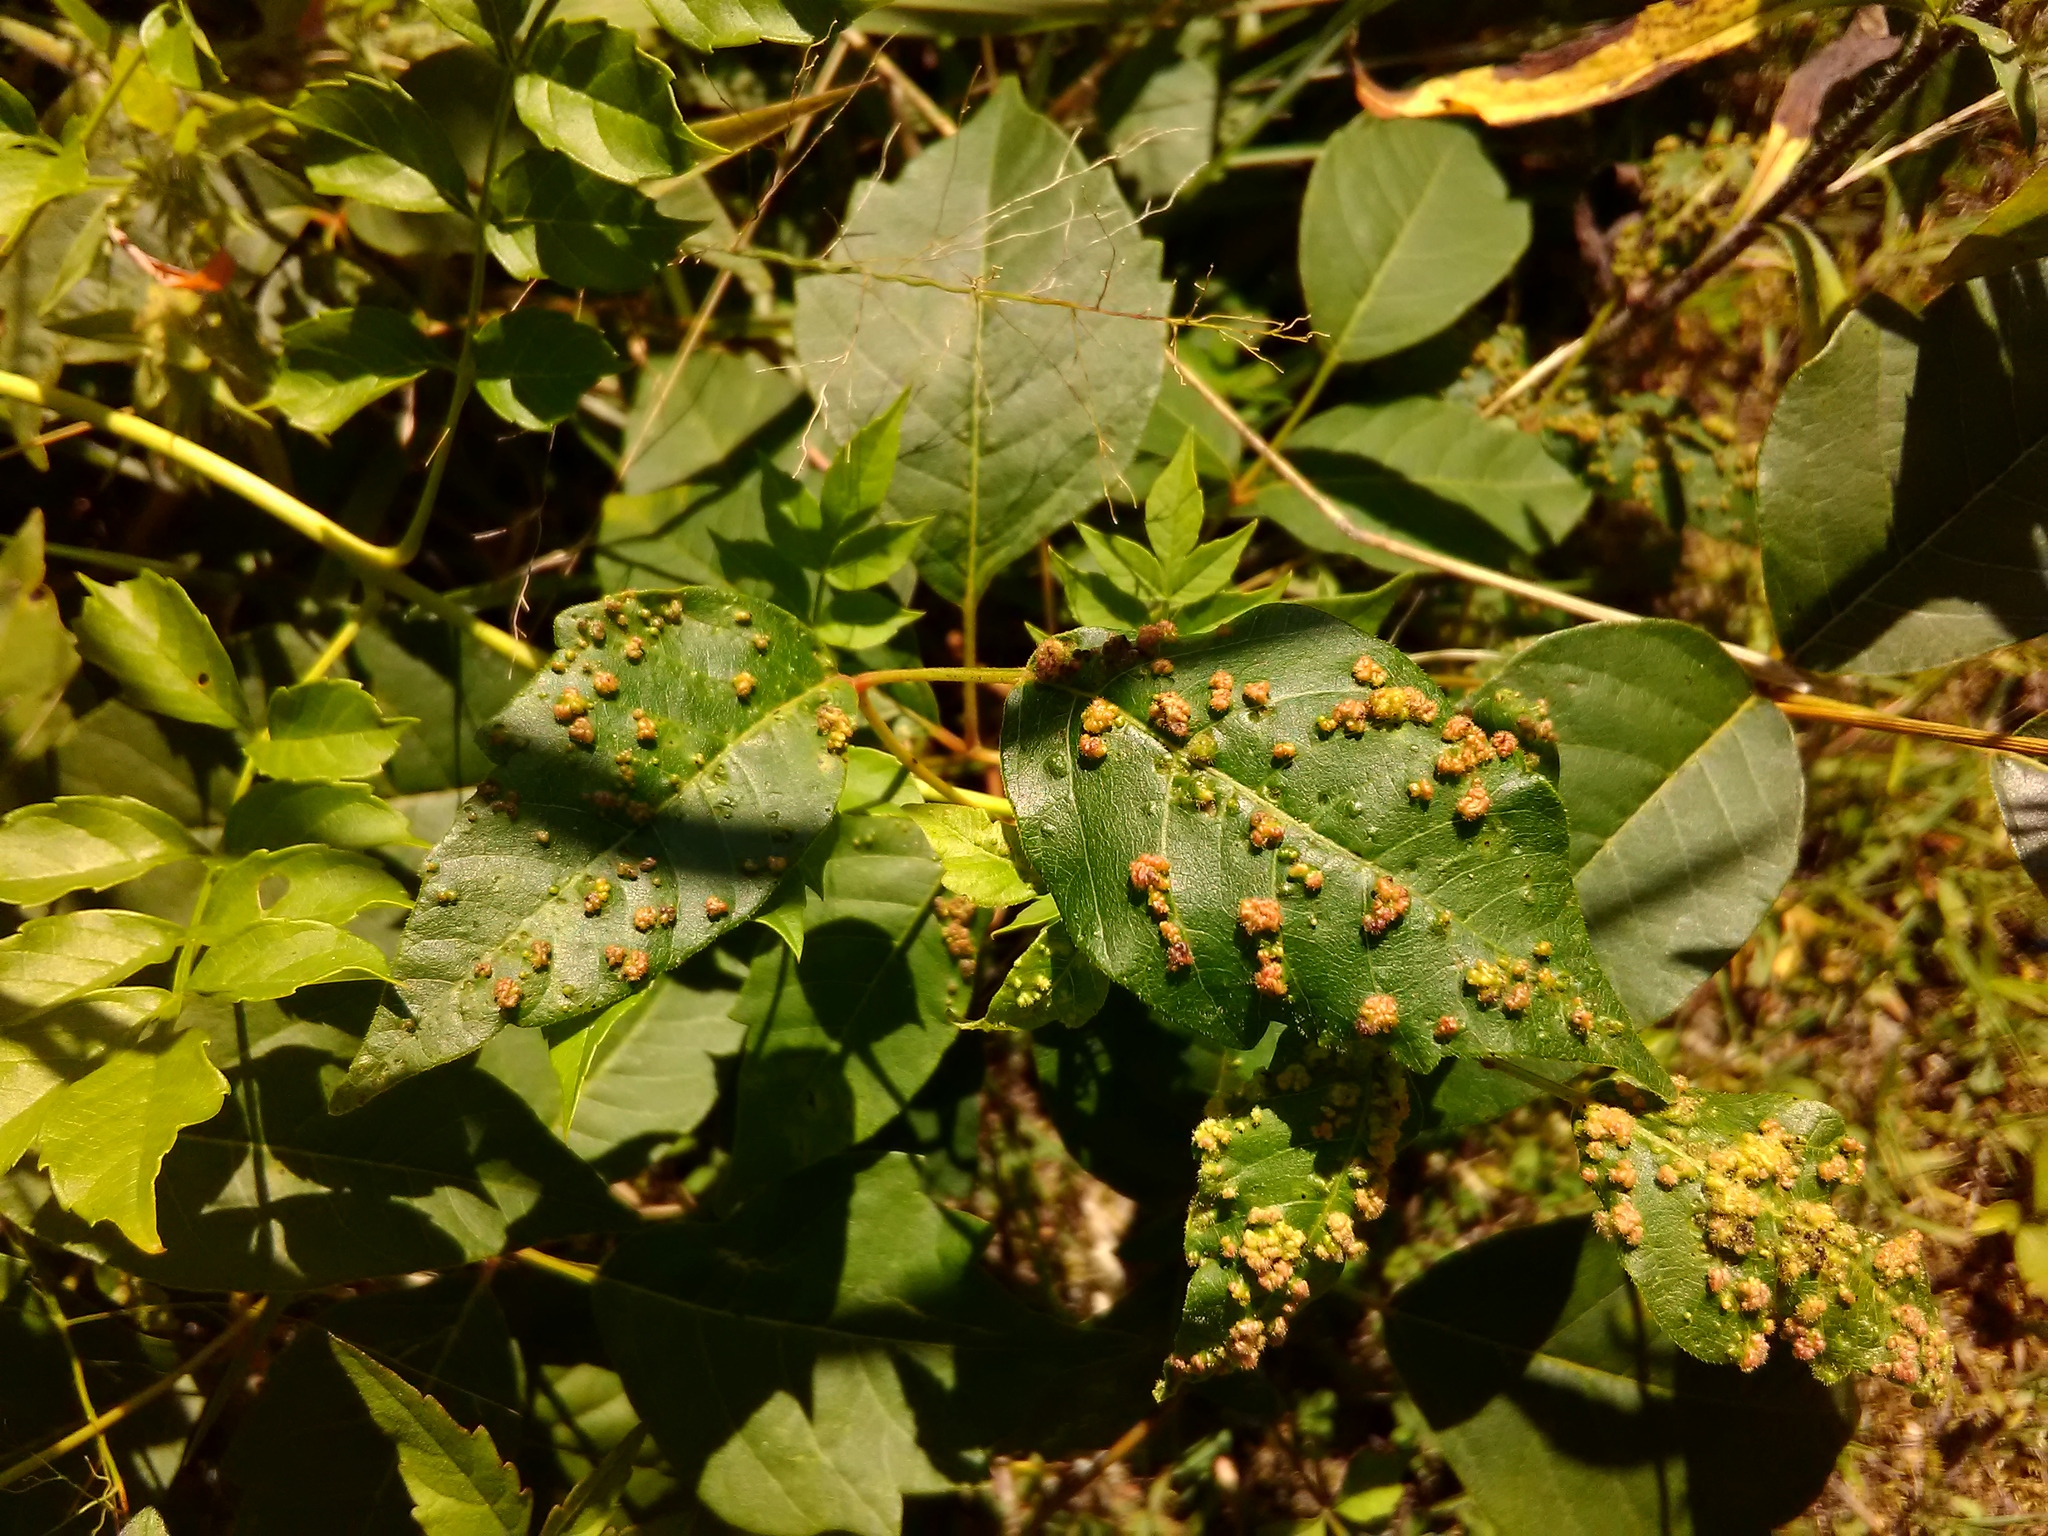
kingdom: Animalia
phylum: Arthropoda
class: Arachnida
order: Trombidiformes
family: Eriophyidae
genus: Aculops
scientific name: Aculops
